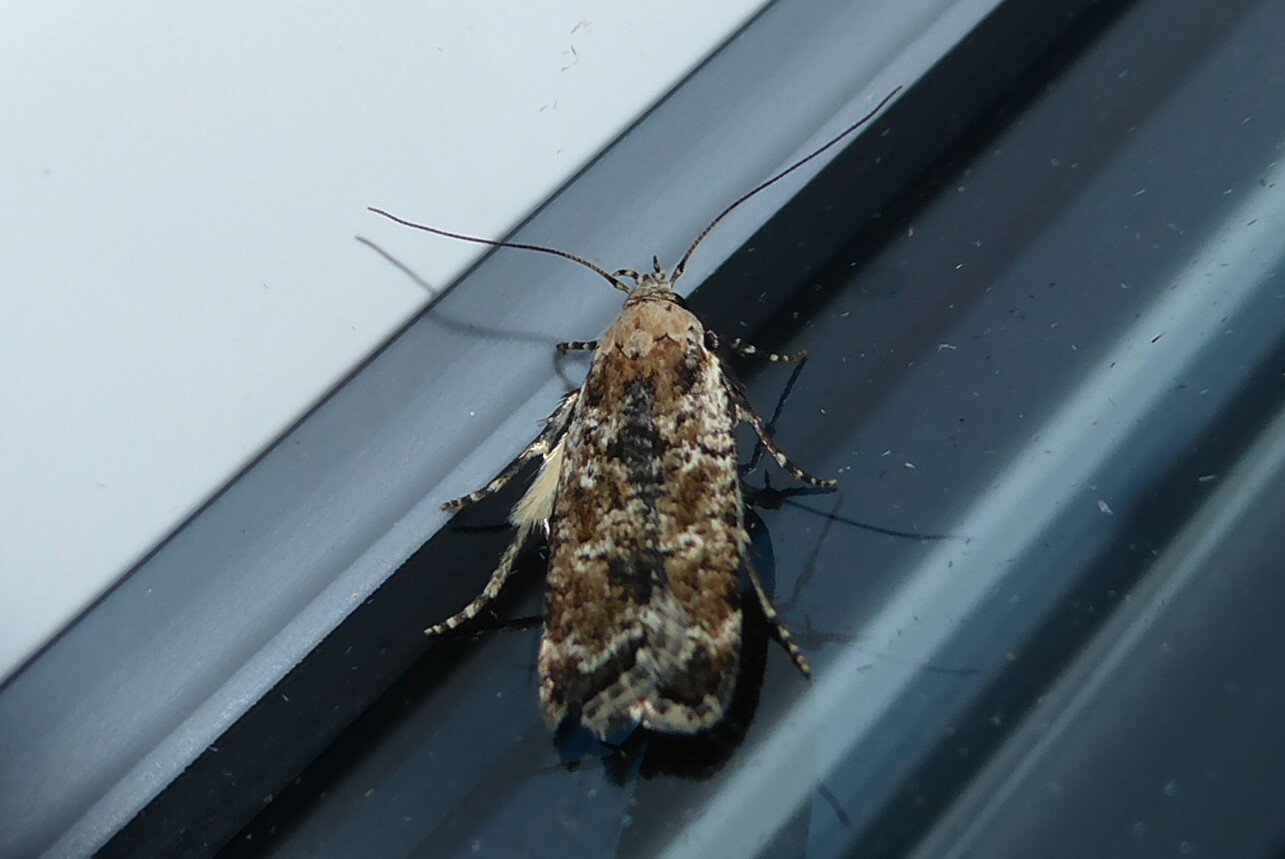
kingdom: Animalia
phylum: Arthropoda
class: Insecta
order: Lepidoptera
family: Gelechiidae
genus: Anisoplaca
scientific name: Anisoplaca achyrota
